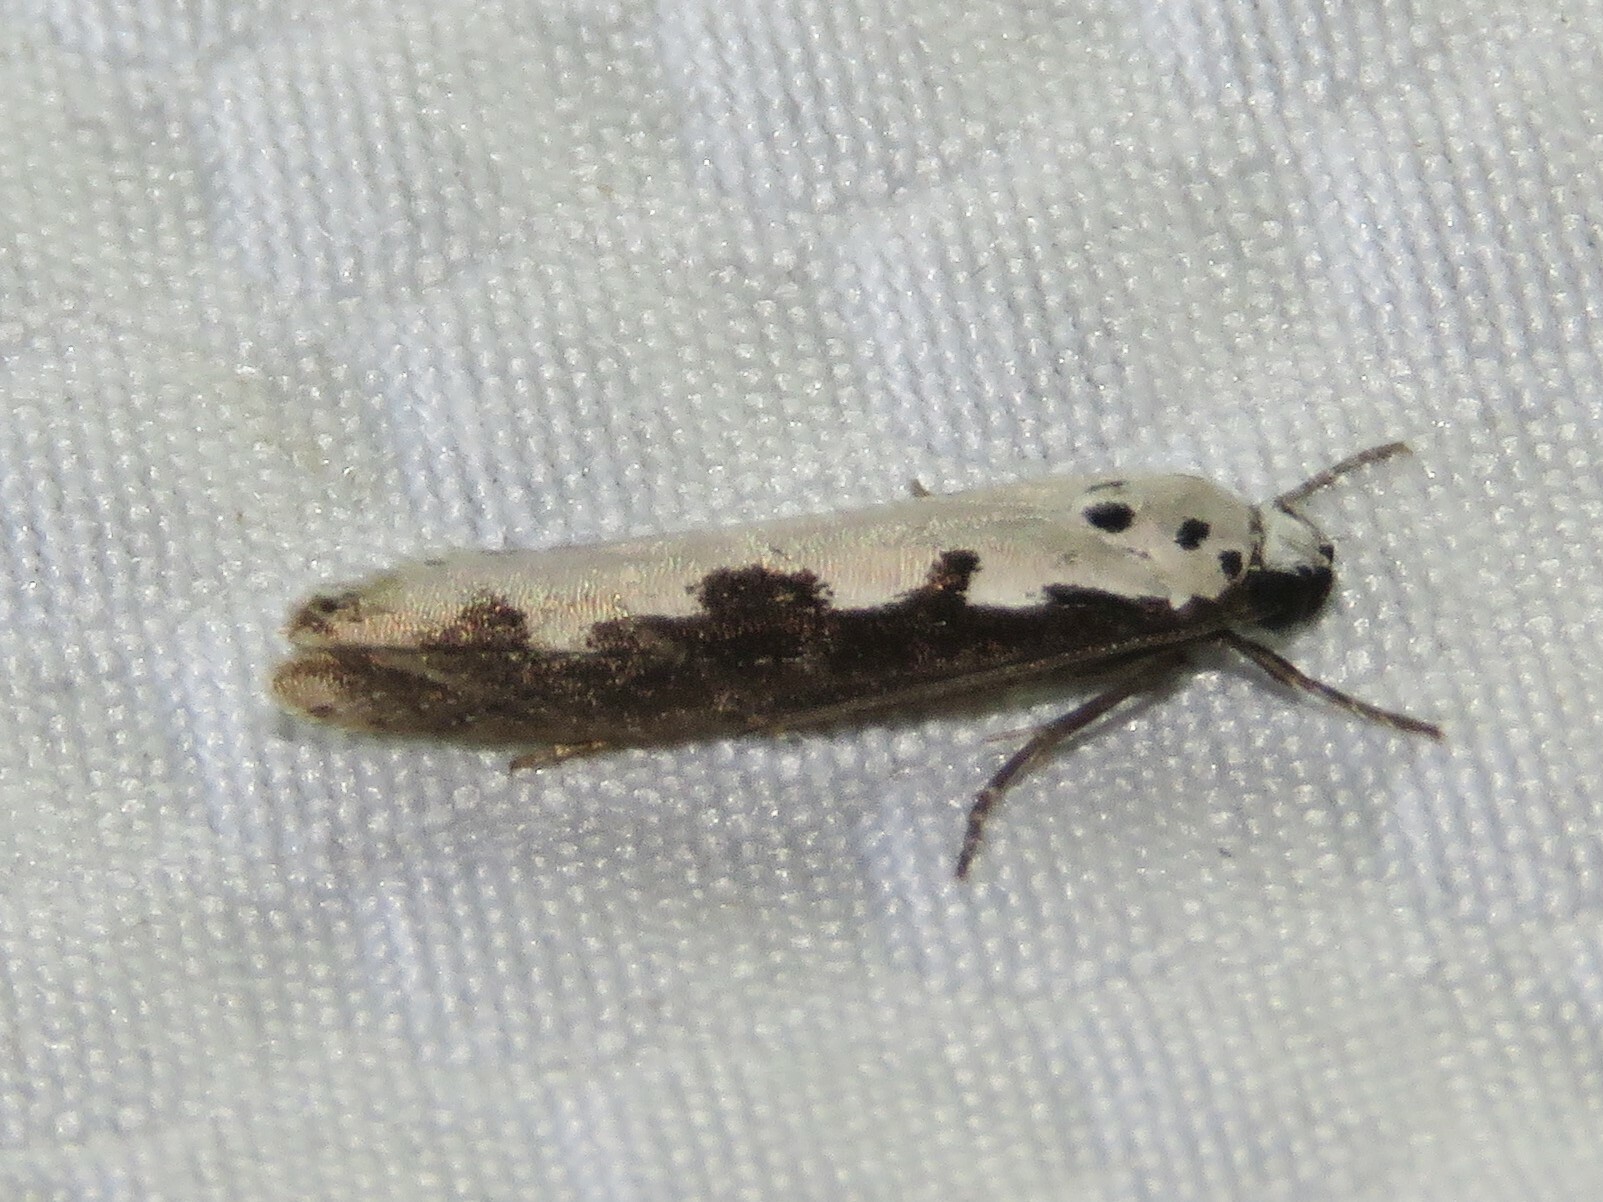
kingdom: Animalia
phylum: Arthropoda
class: Insecta
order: Lepidoptera
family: Ethmiidae
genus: Ethmia
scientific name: Ethmia bipunctella
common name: Bordered ermel
